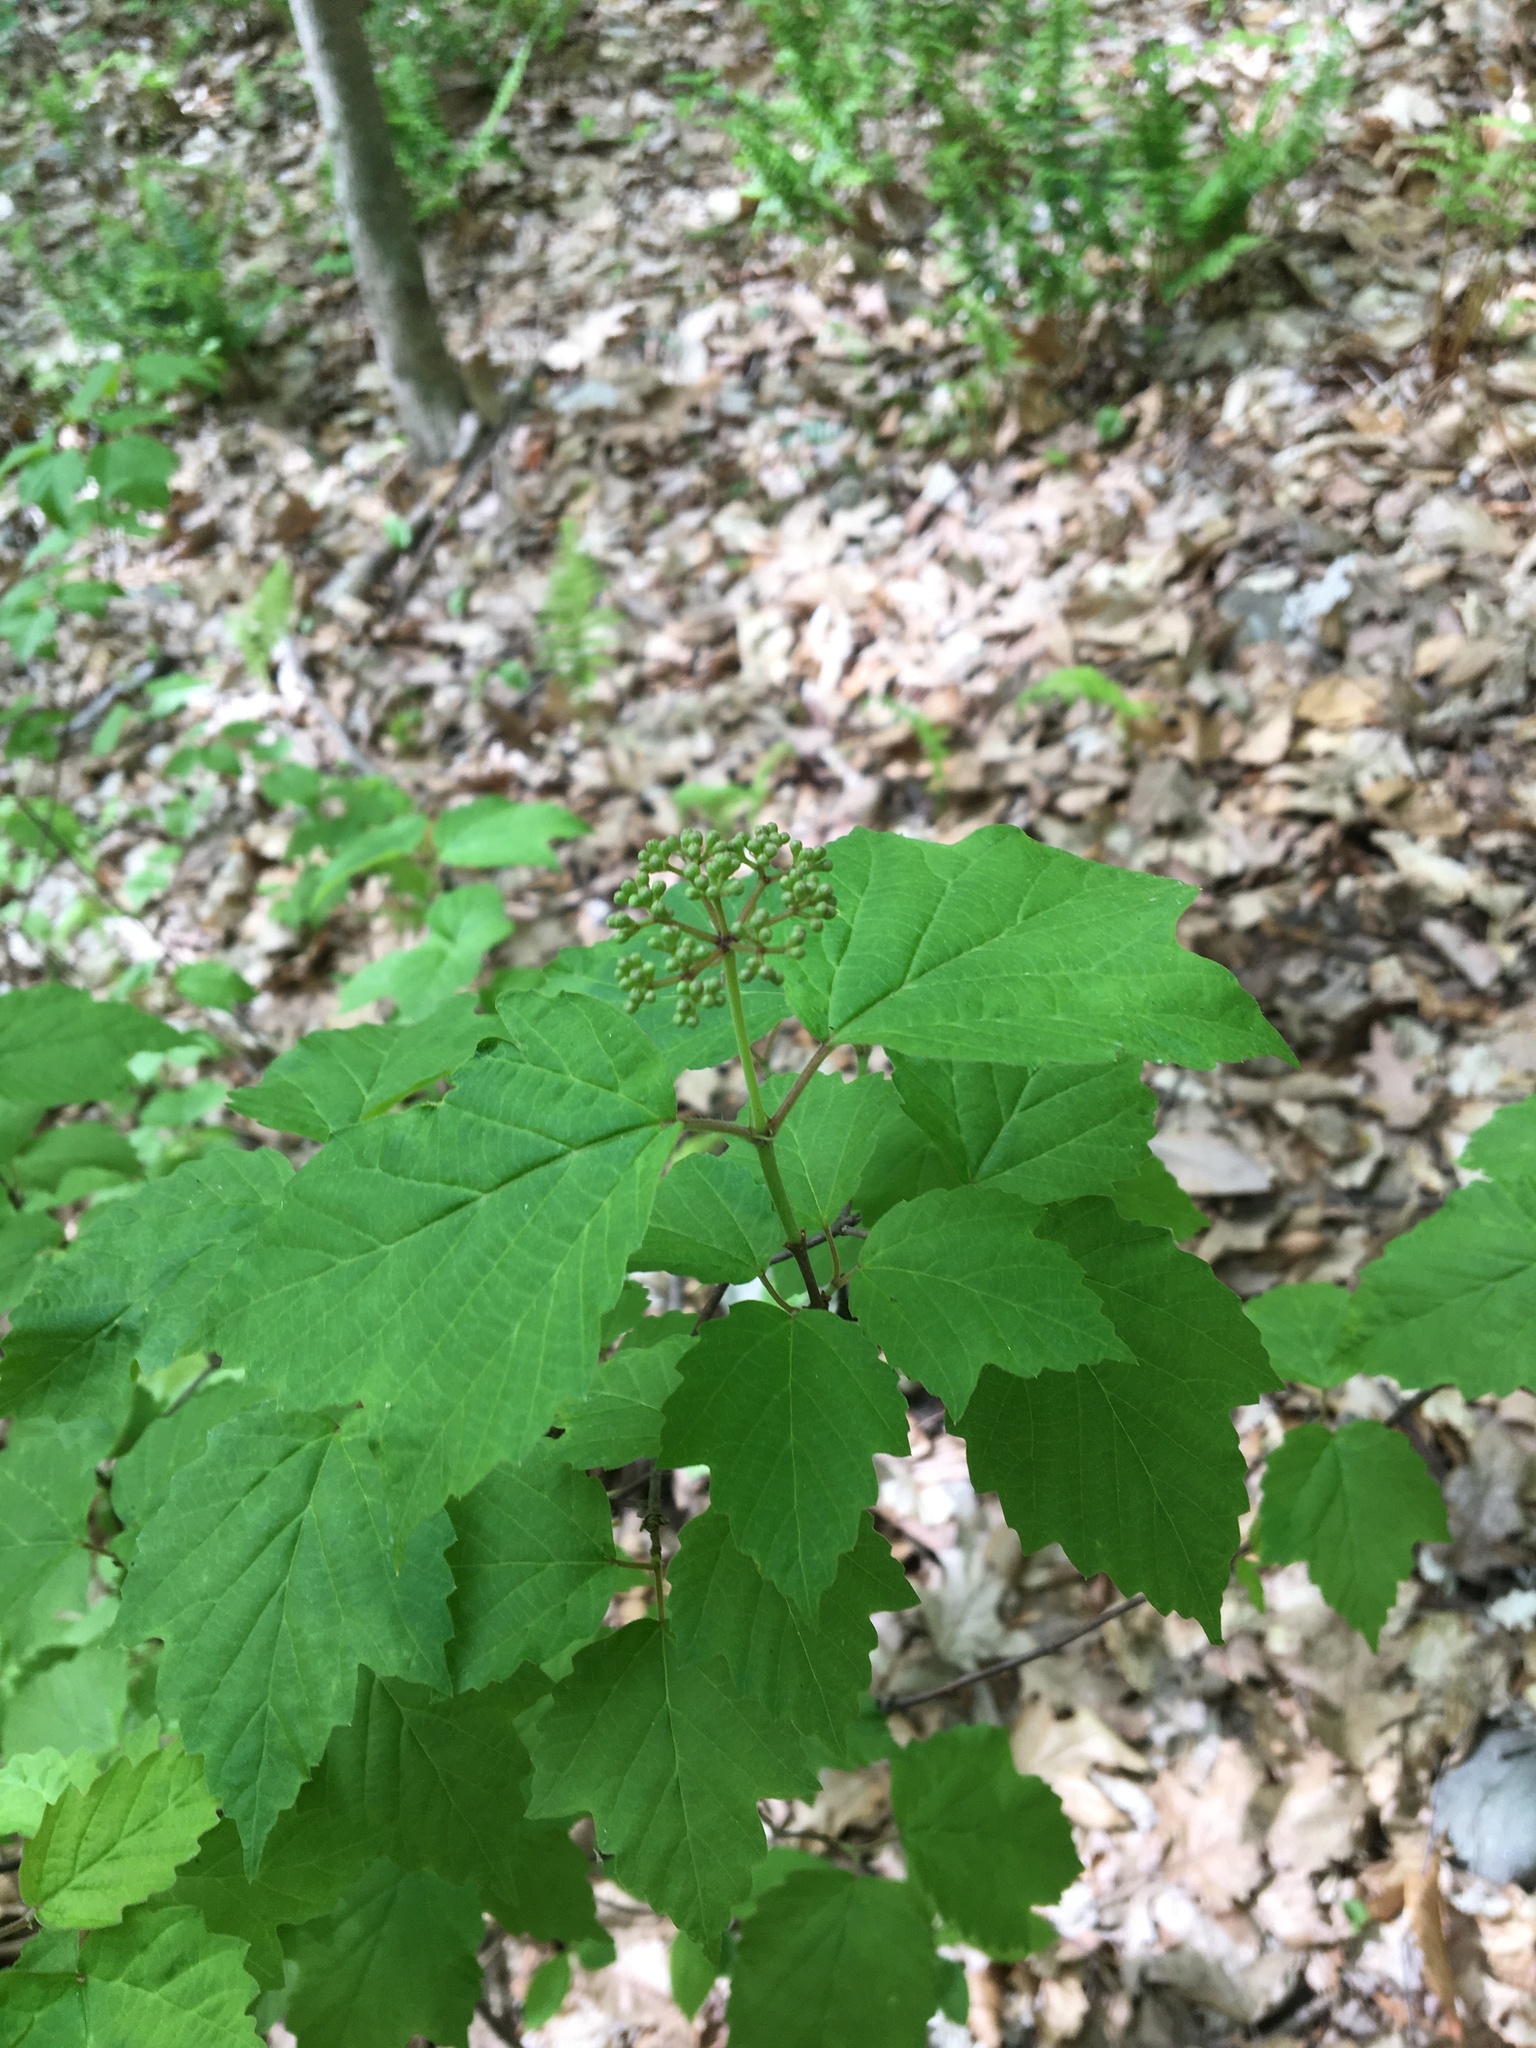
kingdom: Plantae
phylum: Tracheophyta
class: Magnoliopsida
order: Dipsacales
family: Viburnaceae
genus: Viburnum
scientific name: Viburnum acerifolium
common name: Dockmackie
